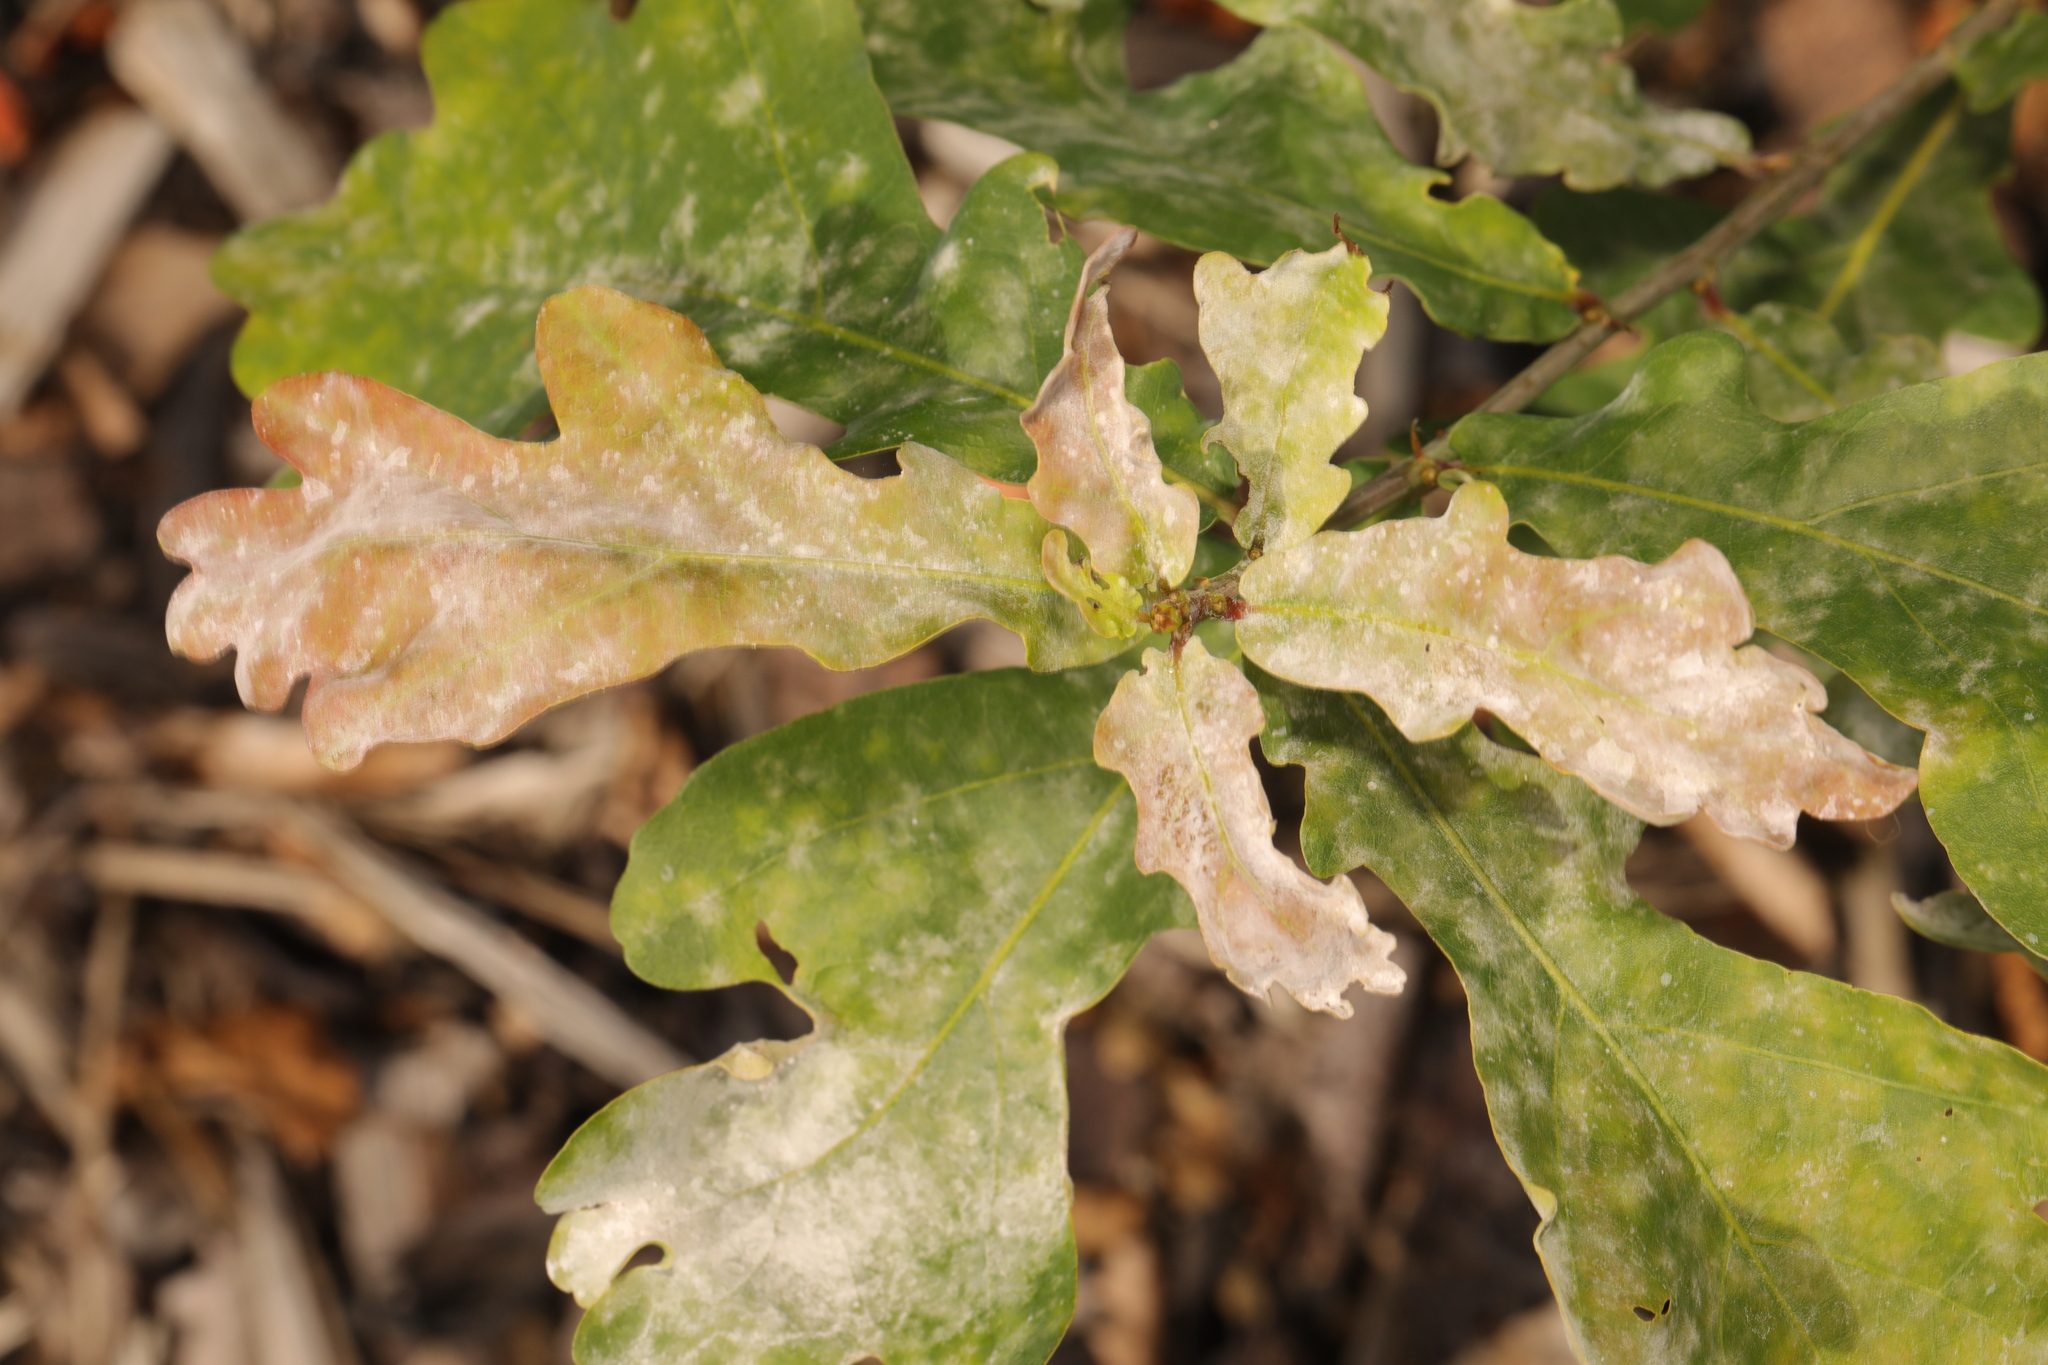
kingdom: Plantae
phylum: Tracheophyta
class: Magnoliopsida
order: Fagales
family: Fagaceae
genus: Quercus
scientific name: Quercus robur
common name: Pedunculate oak
